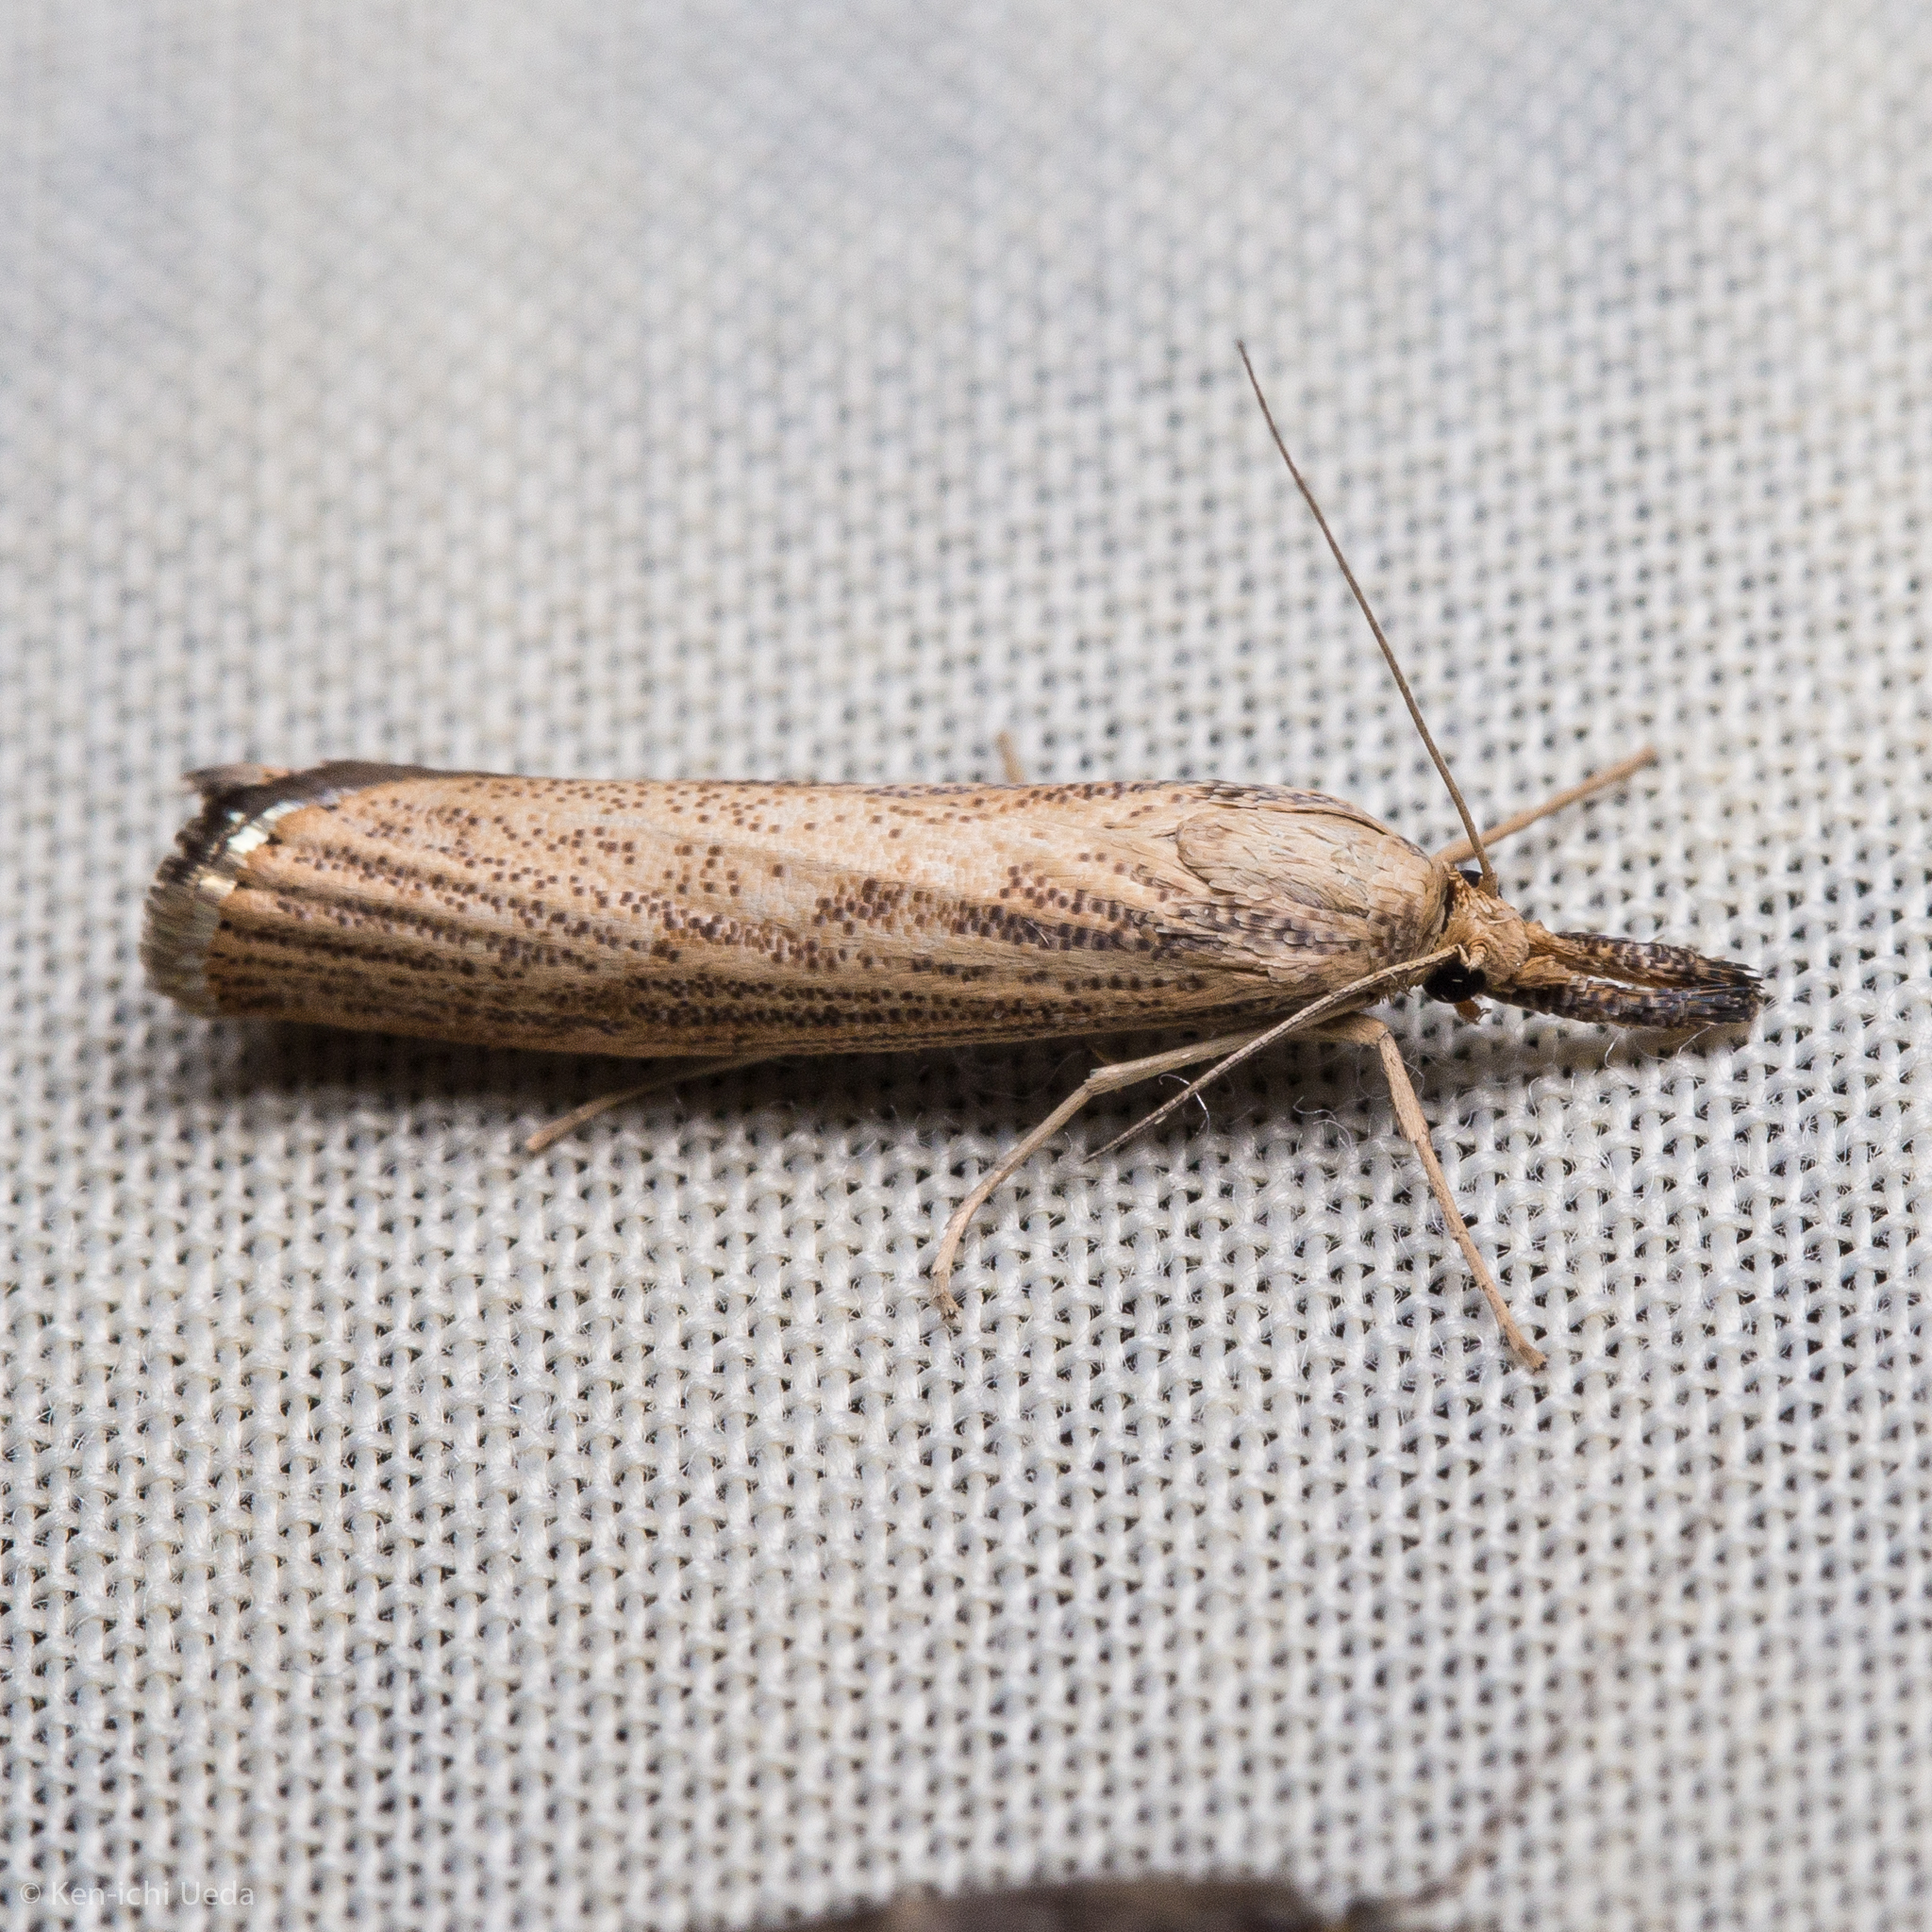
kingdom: Animalia
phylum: Arthropoda
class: Insecta
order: Lepidoptera
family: Crambidae
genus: Agriphila
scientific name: Agriphila vulgivagellus
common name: Vagabond crambus moth
